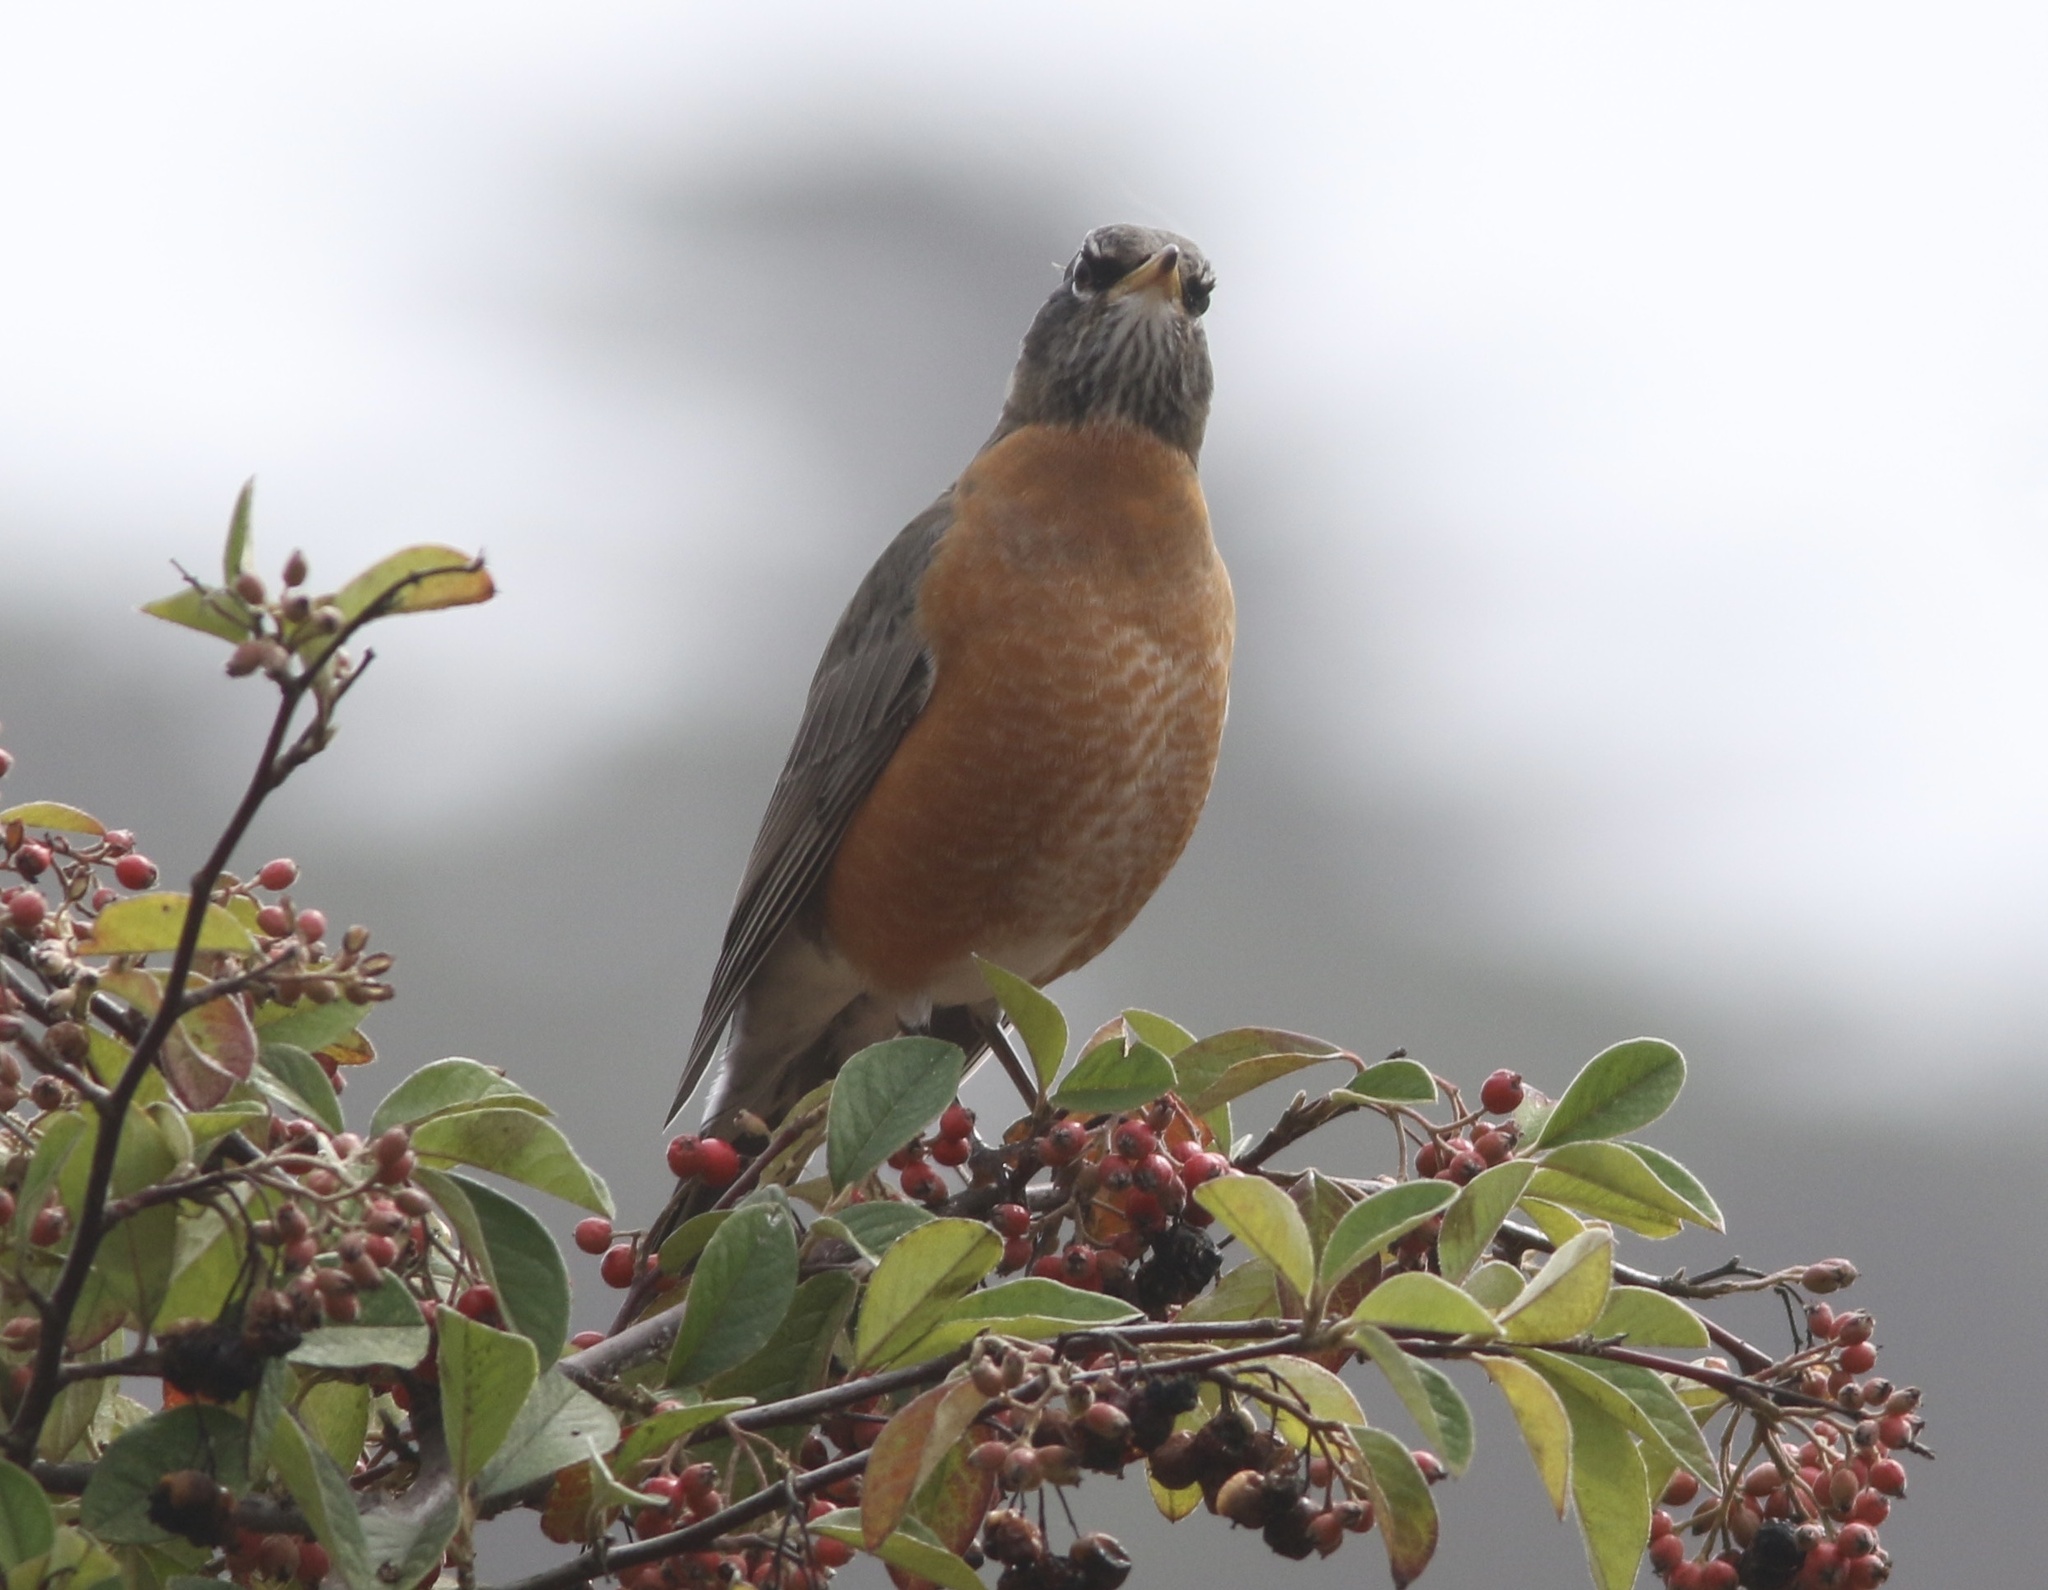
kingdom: Animalia
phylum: Chordata
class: Aves
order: Passeriformes
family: Turdidae
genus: Turdus
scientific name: Turdus migratorius
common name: American robin
